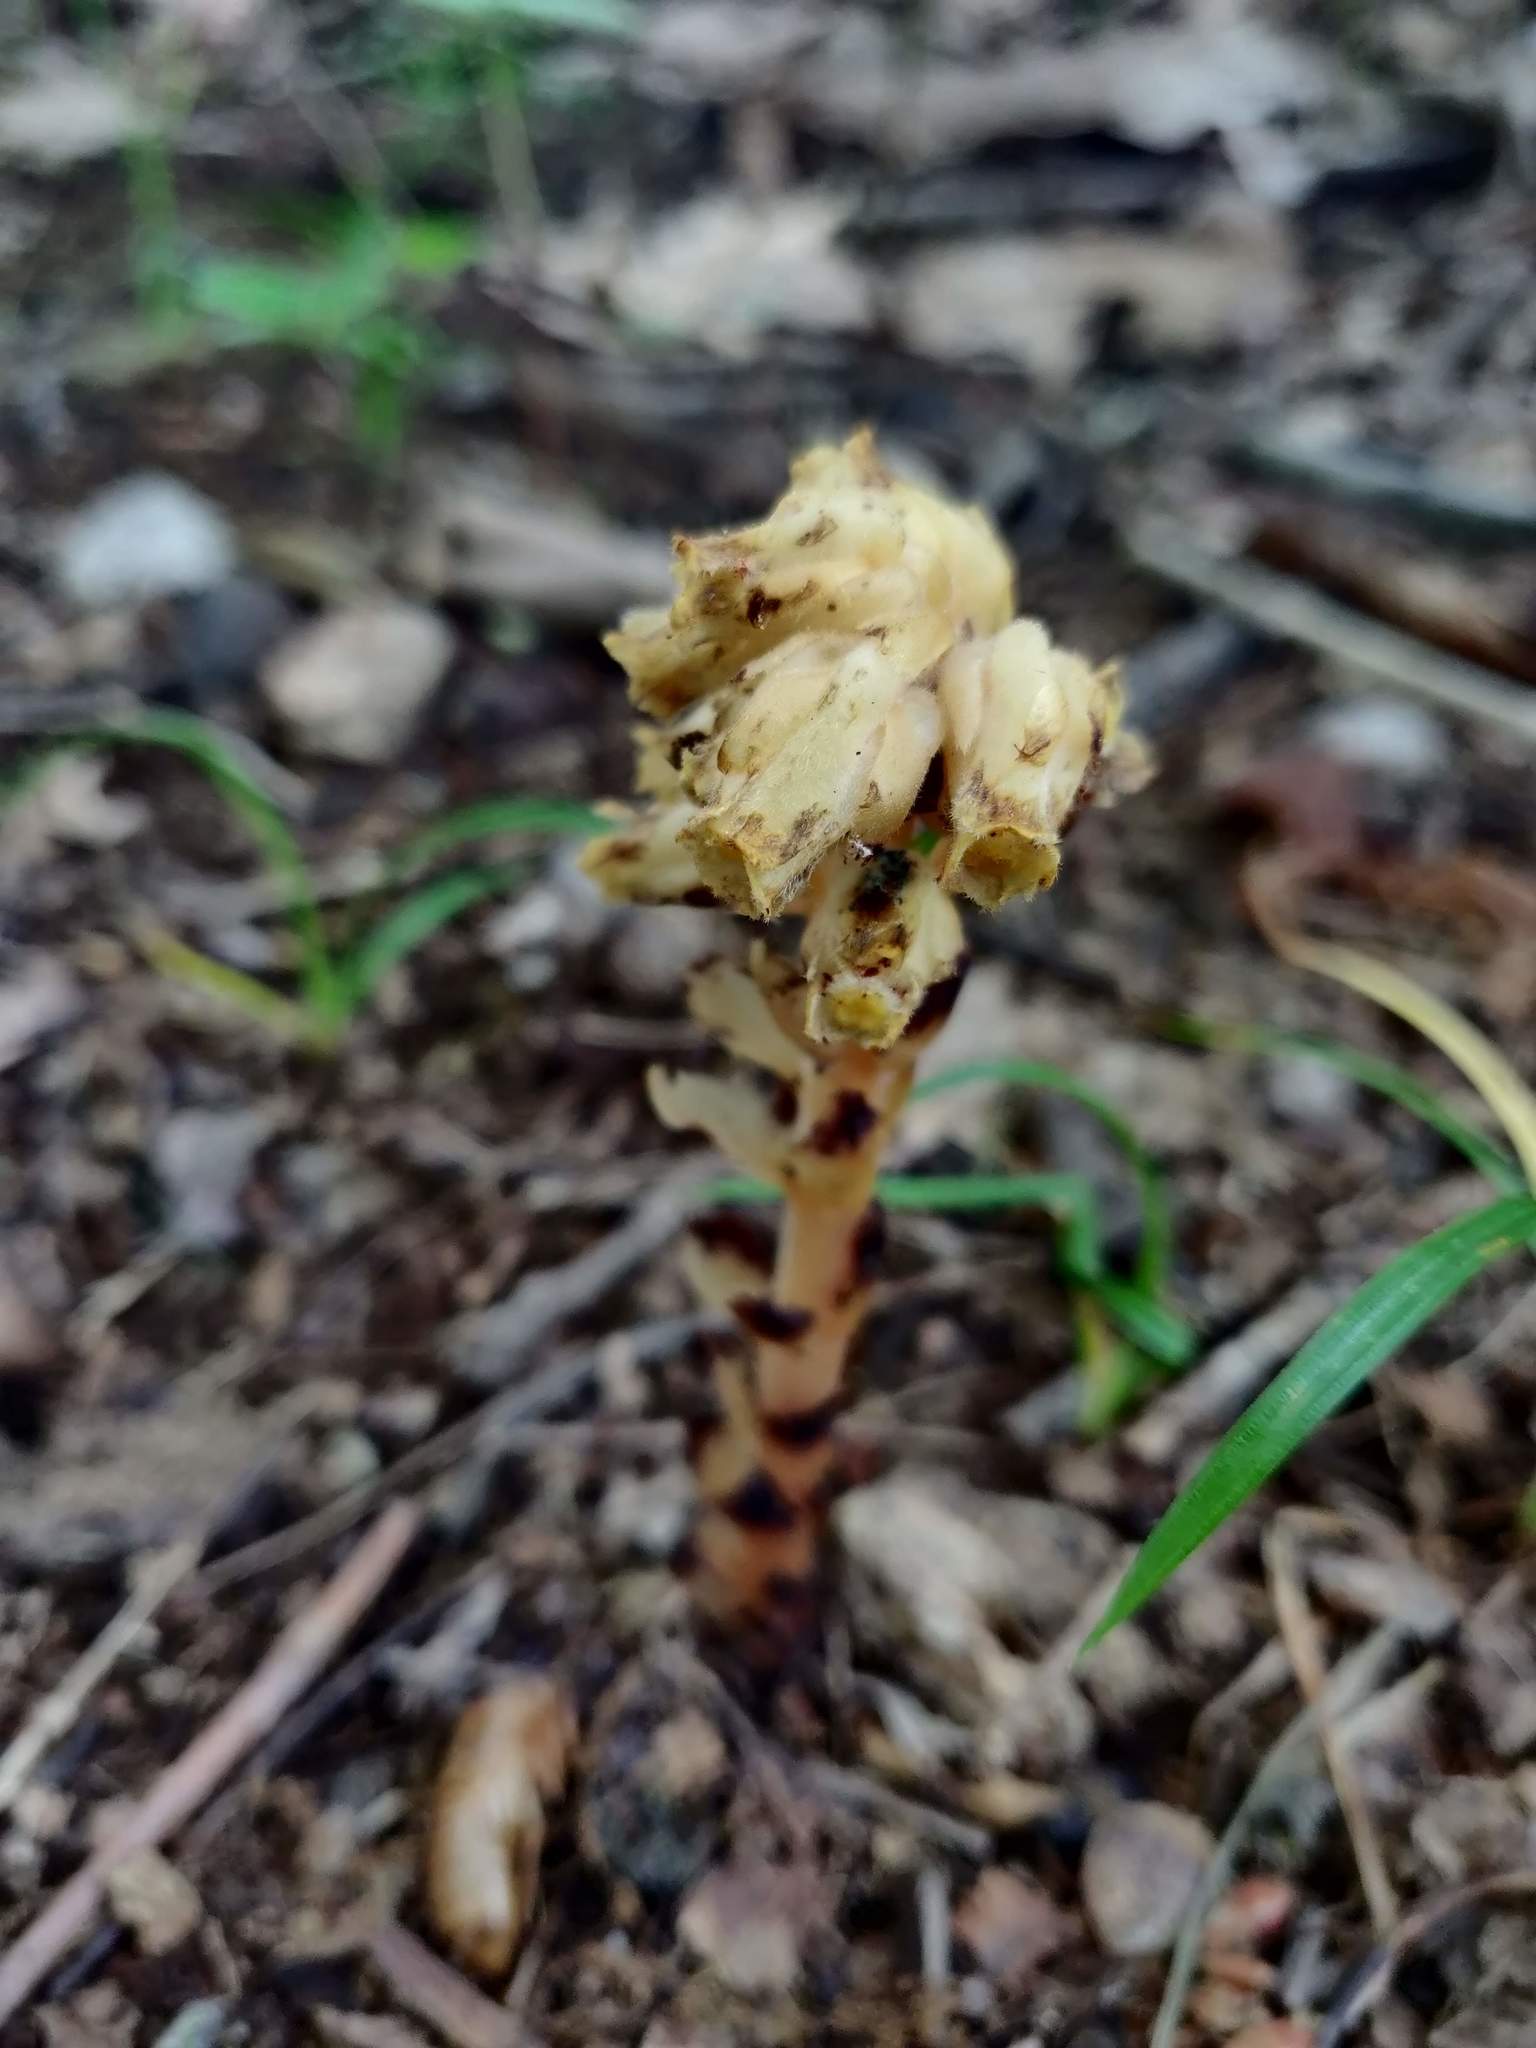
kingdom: Plantae
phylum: Tracheophyta
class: Magnoliopsida
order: Ericales
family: Ericaceae
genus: Hypopitys
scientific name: Hypopitys monotropa
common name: Yellow bird's-nest
